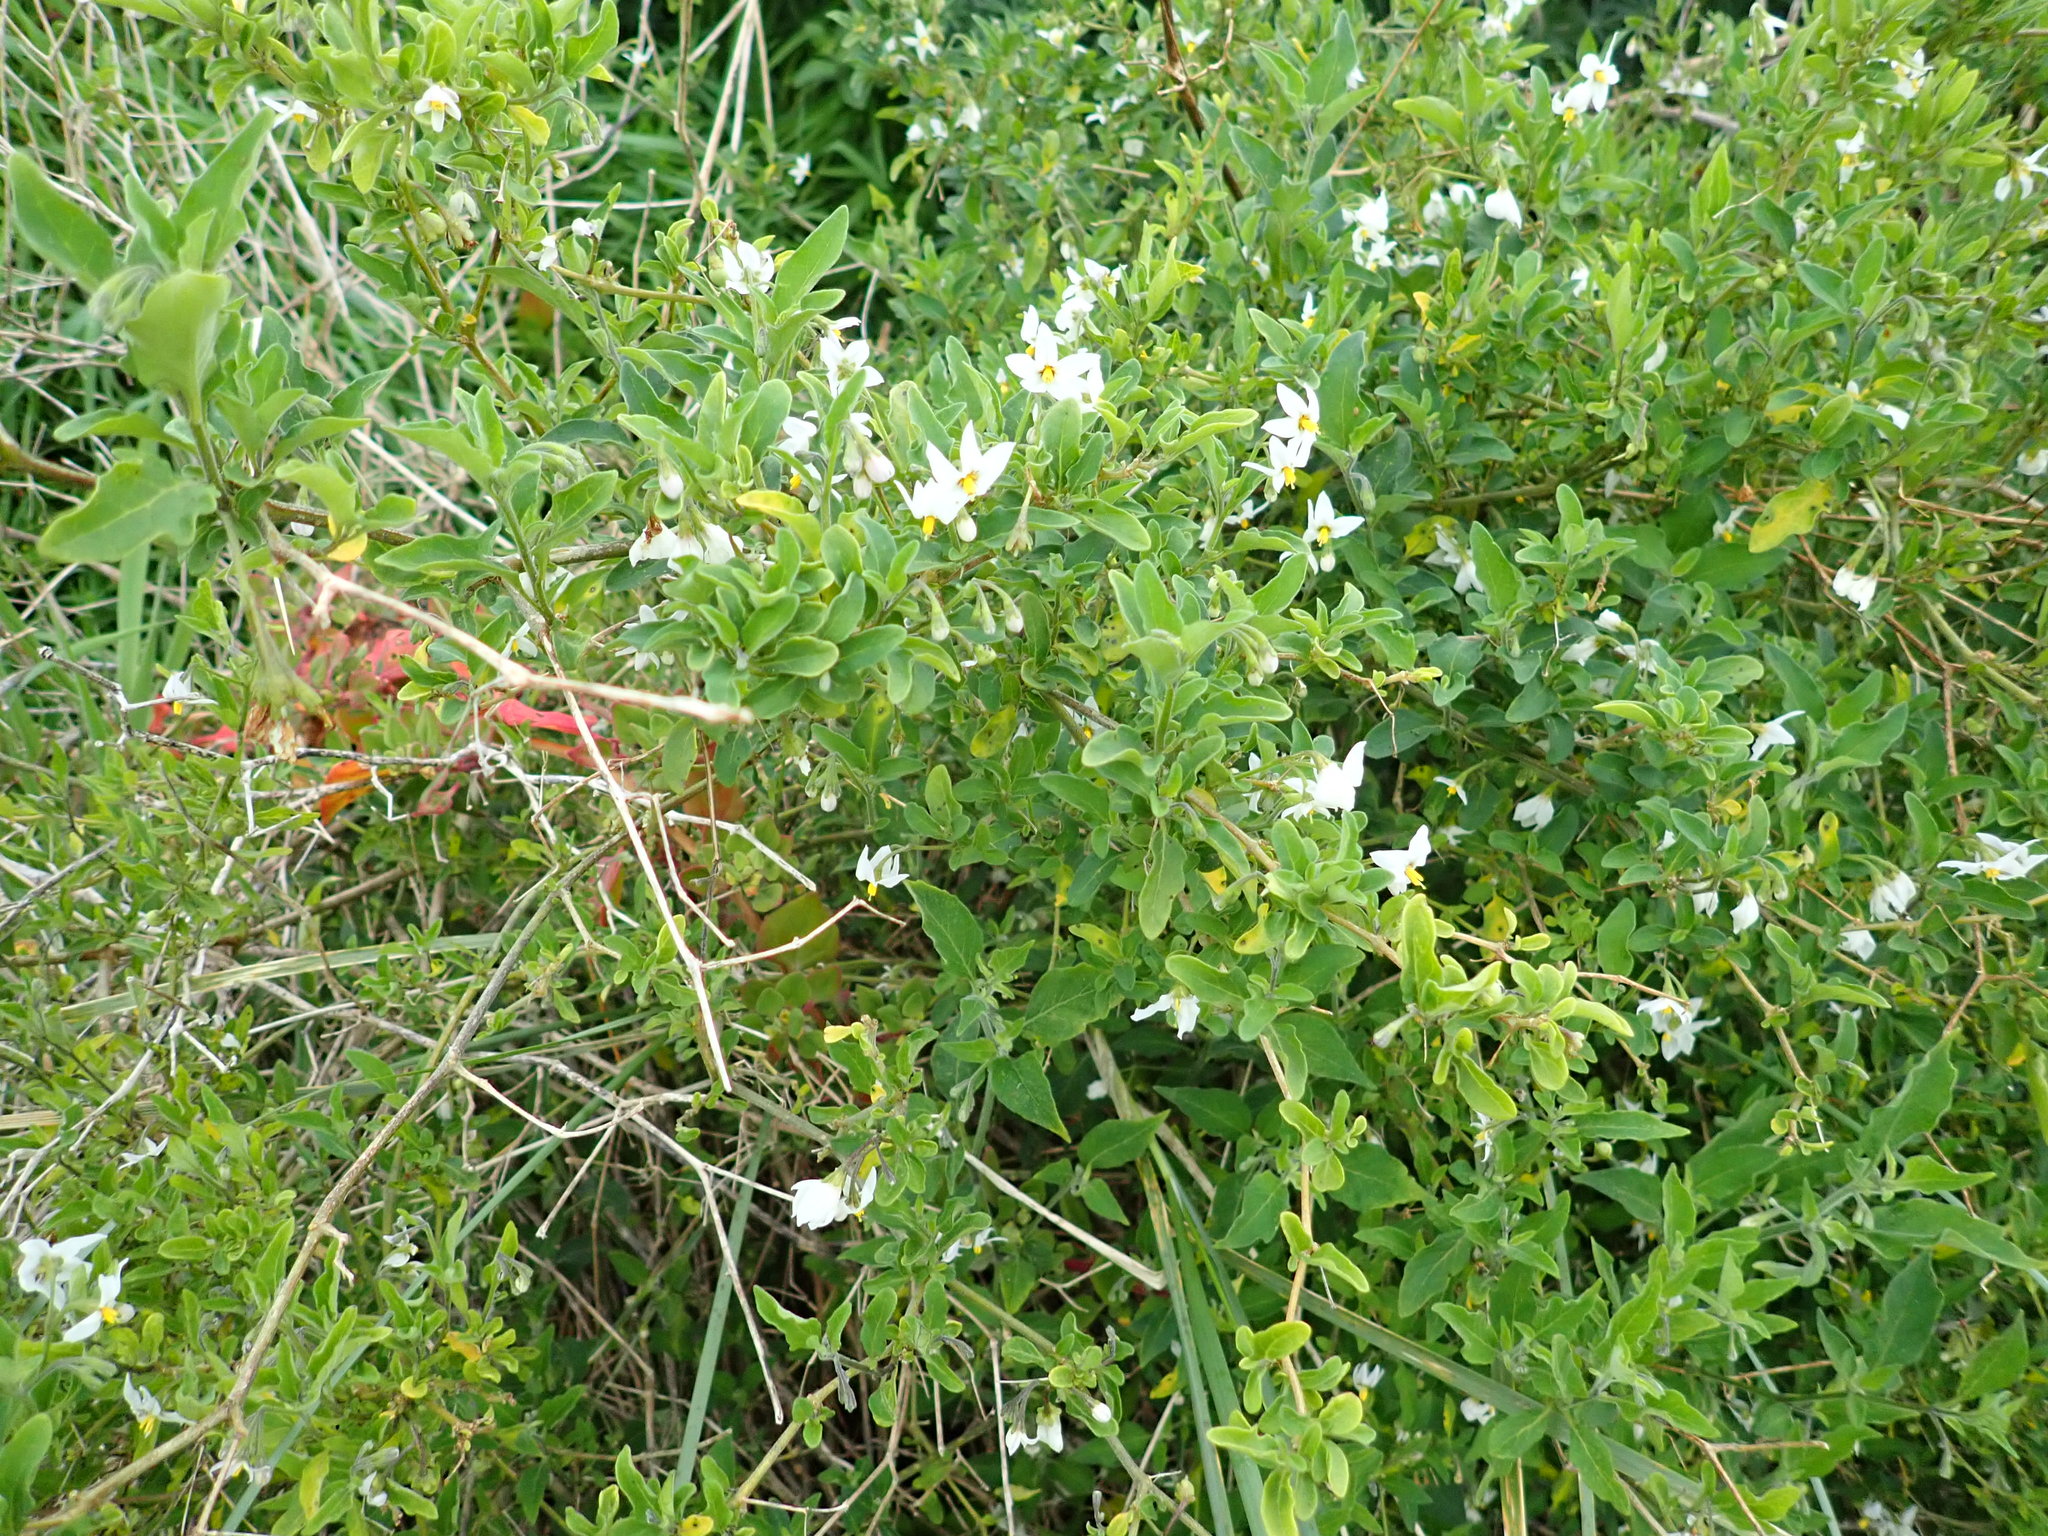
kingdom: Plantae
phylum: Tracheophyta
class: Magnoliopsida
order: Solanales
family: Solanaceae
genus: Solanum
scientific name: Solanum chenopodioides
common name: Tall nightshade
